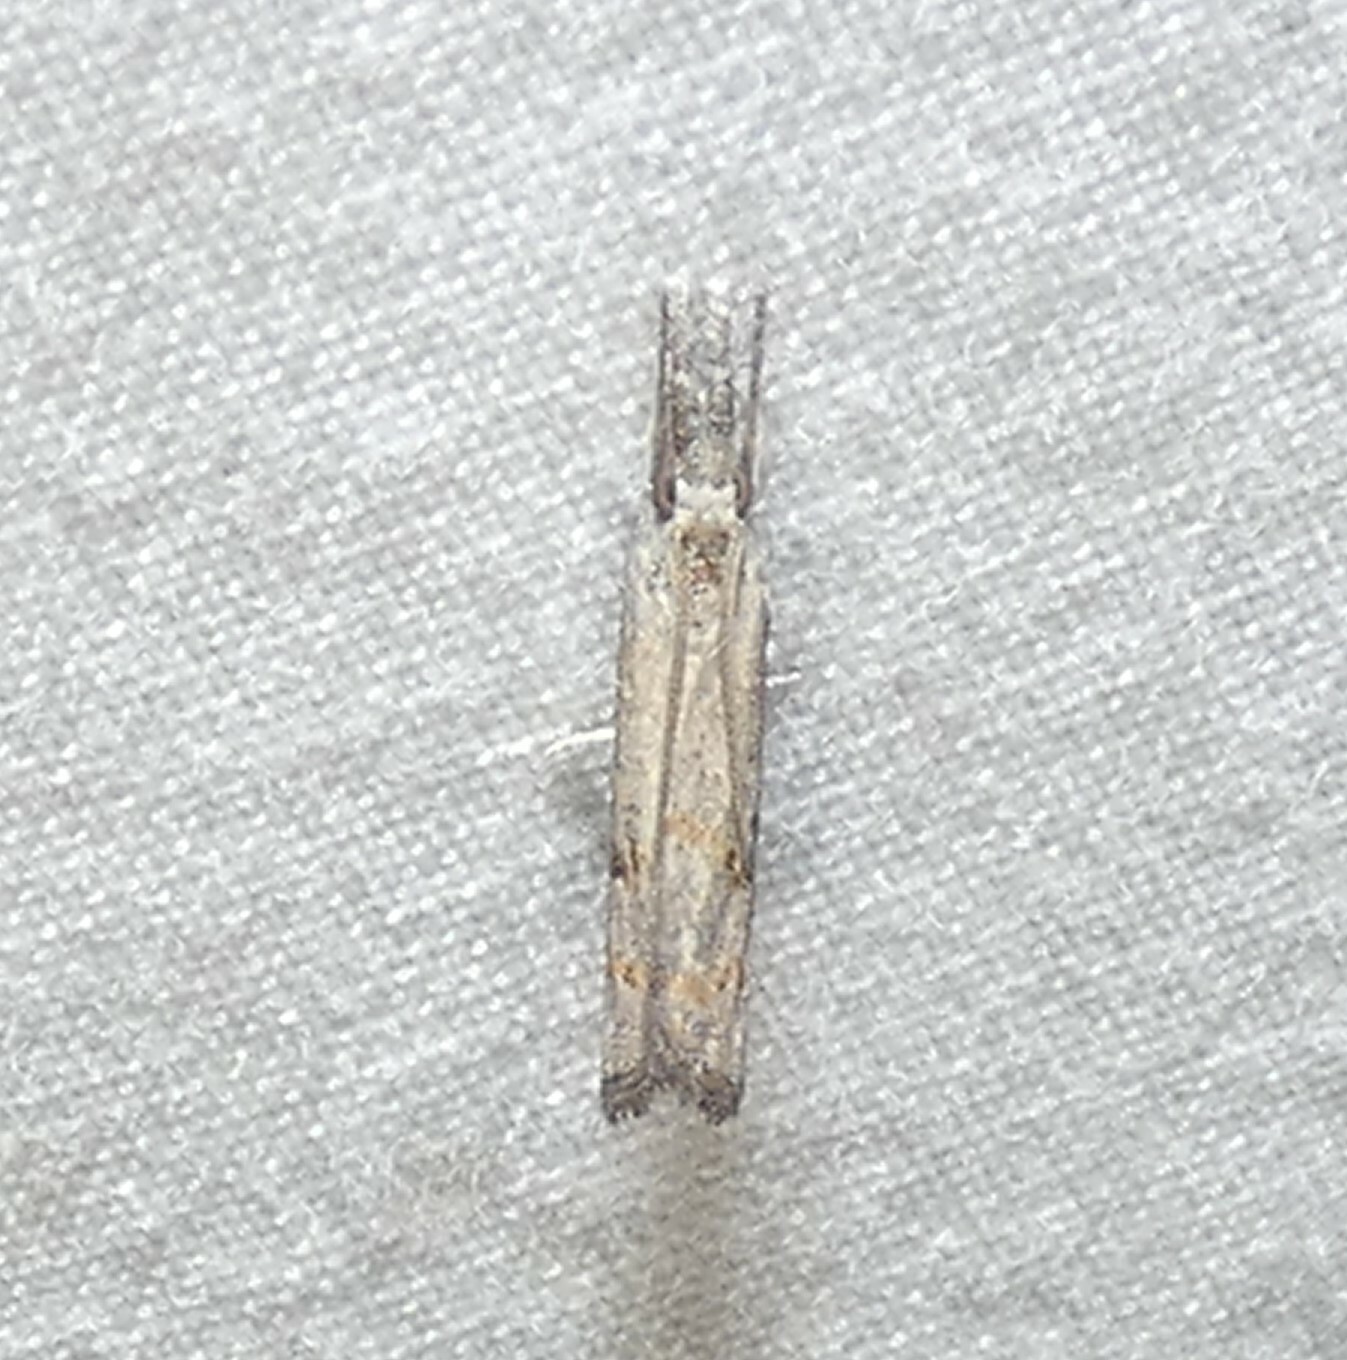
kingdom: Animalia
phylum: Arthropoda
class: Insecta
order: Lepidoptera
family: Crambidae
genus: Parapediasia
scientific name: Parapediasia teterellus
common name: Bluegrass webworm moth
